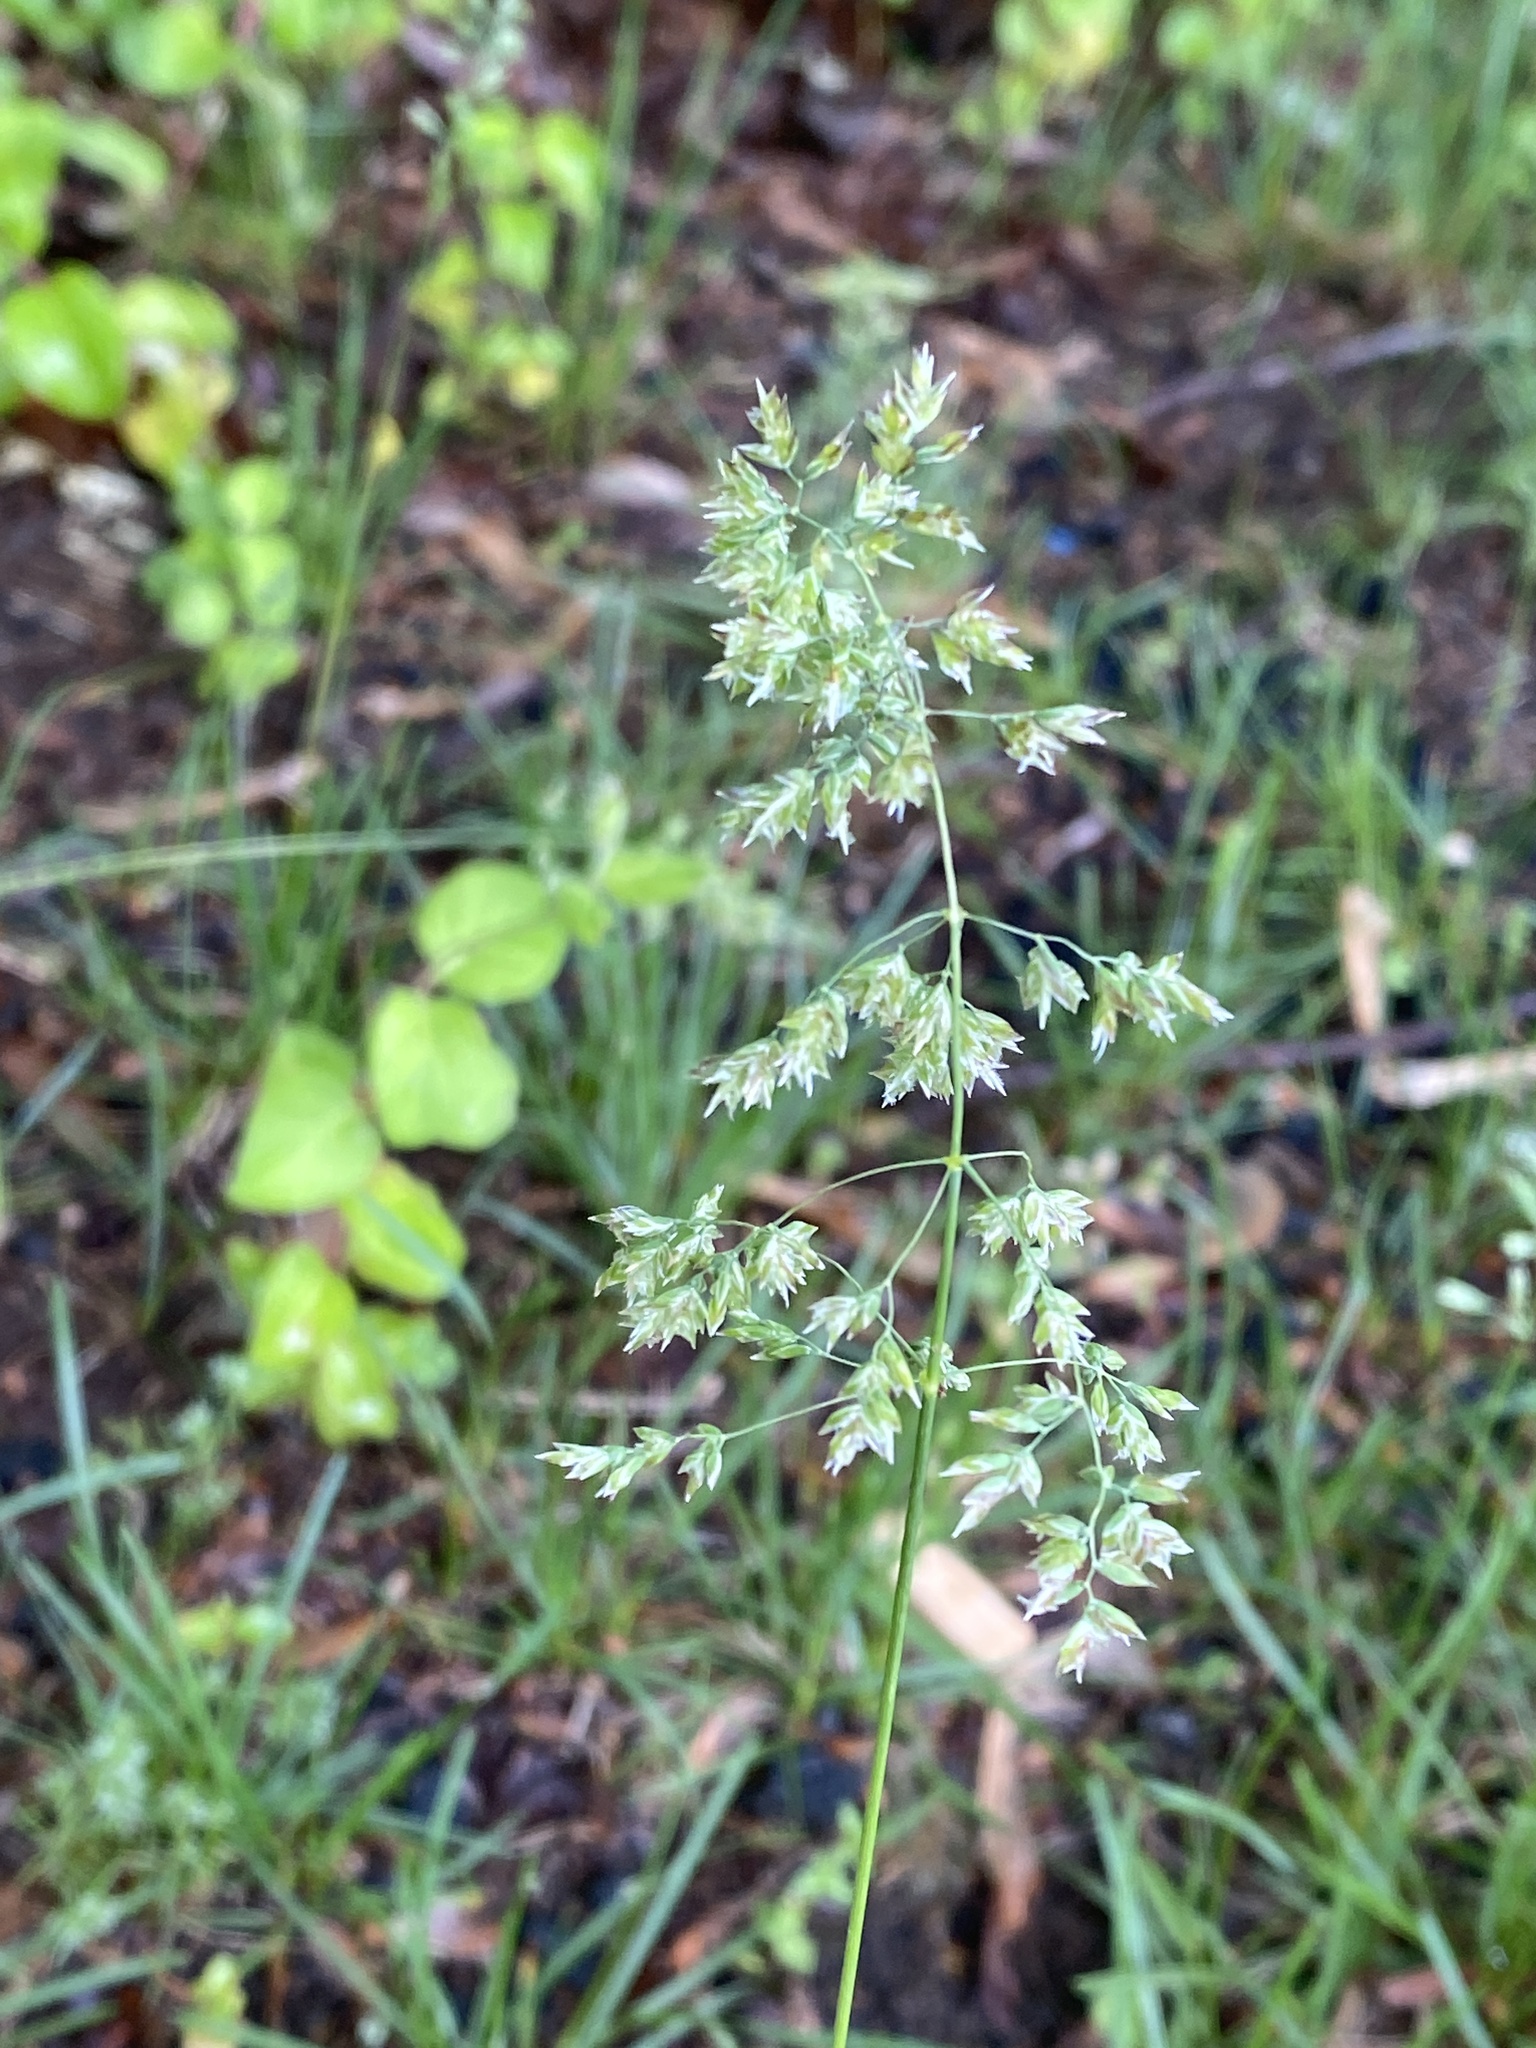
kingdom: Plantae
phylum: Tracheophyta
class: Liliopsida
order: Poales
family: Poaceae
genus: Poa
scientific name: Poa pratensis
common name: Kentucky bluegrass
